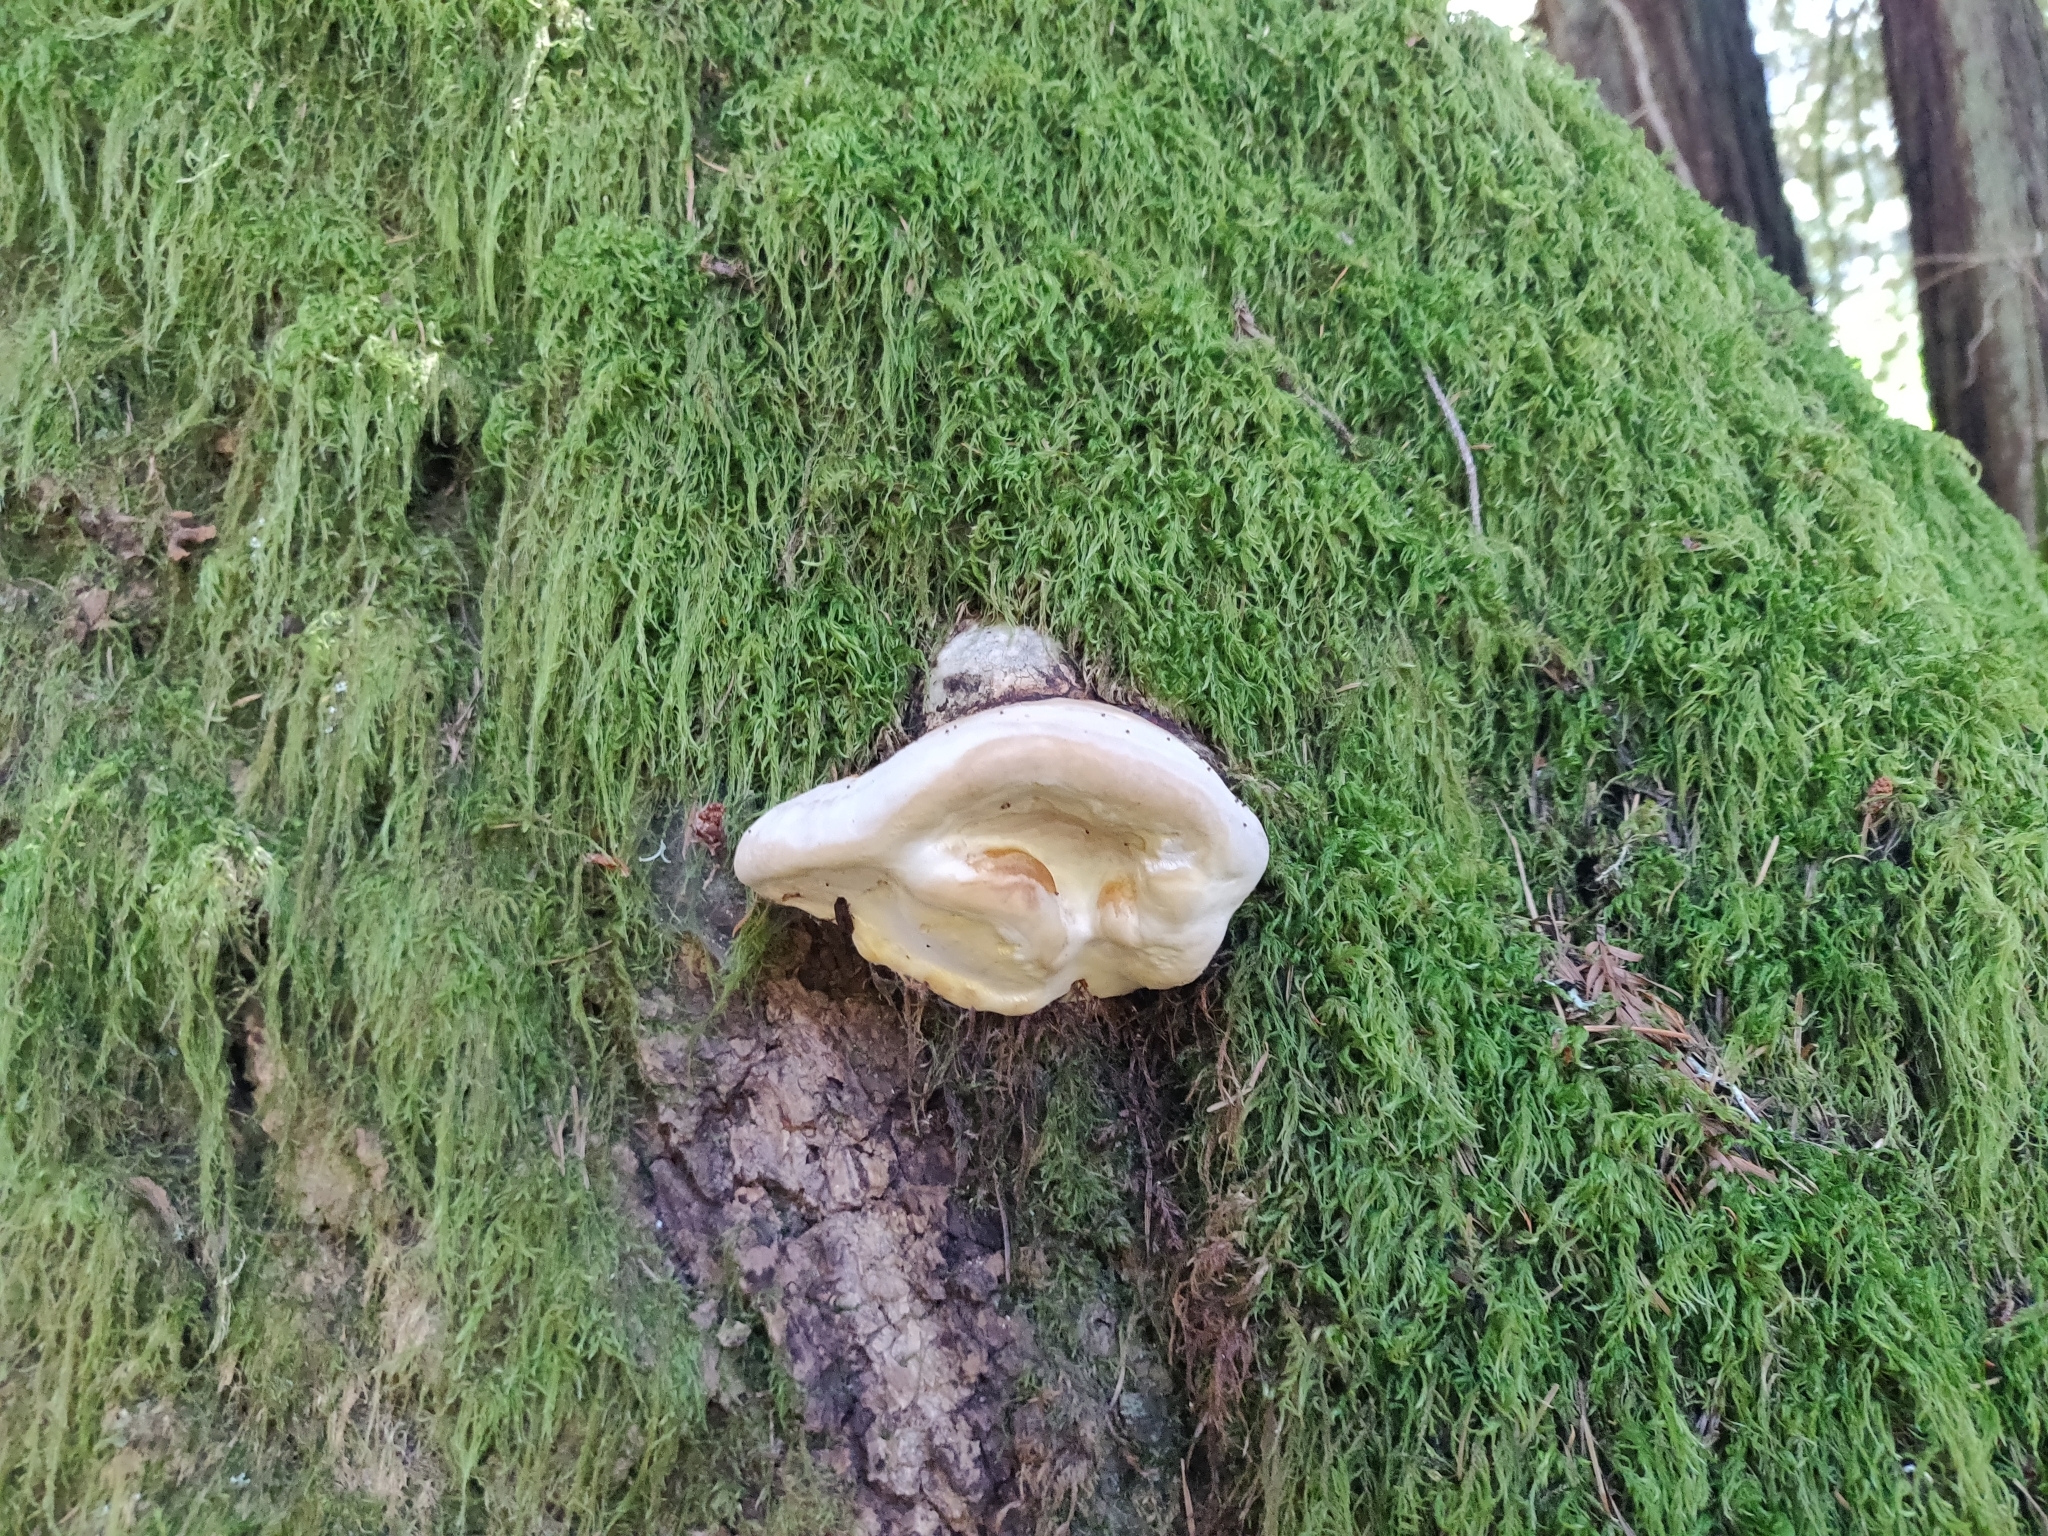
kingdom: Fungi
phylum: Basidiomycota
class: Agaricomycetes
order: Polyporales
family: Fomitopsidaceae
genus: Fomitopsis
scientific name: Fomitopsis mounceae
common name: Northern red belt
